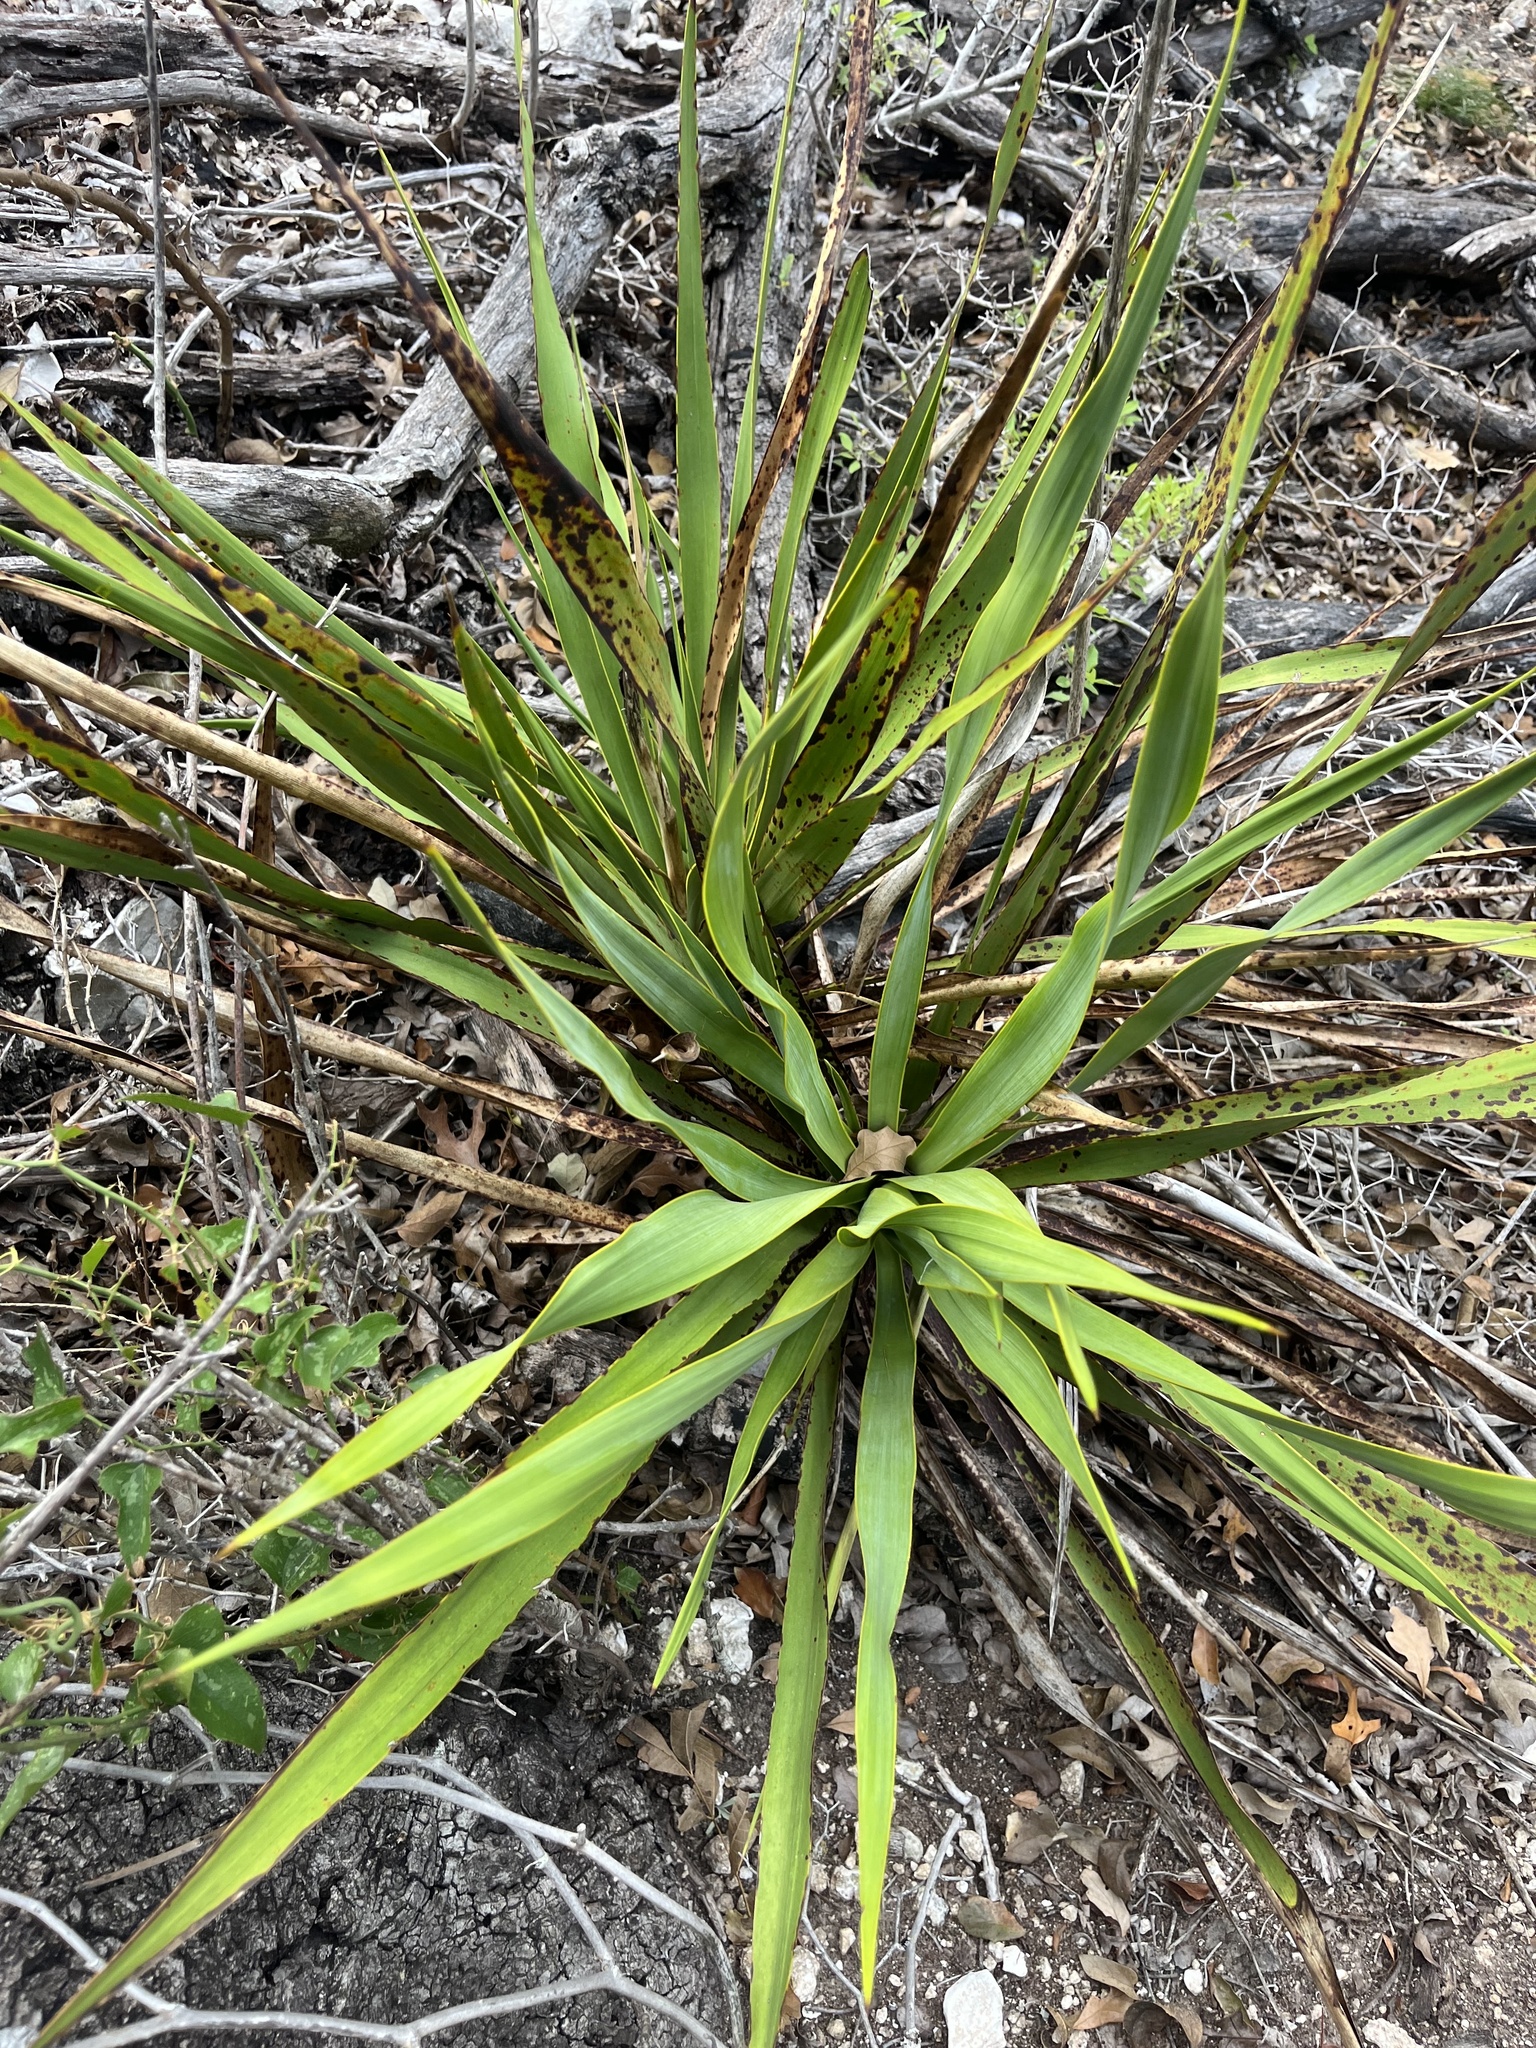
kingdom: Plantae
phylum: Tracheophyta
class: Liliopsida
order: Asparagales
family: Asparagaceae
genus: Yucca
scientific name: Yucca rupicola
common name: Twisted-leaf spanish-dagger
